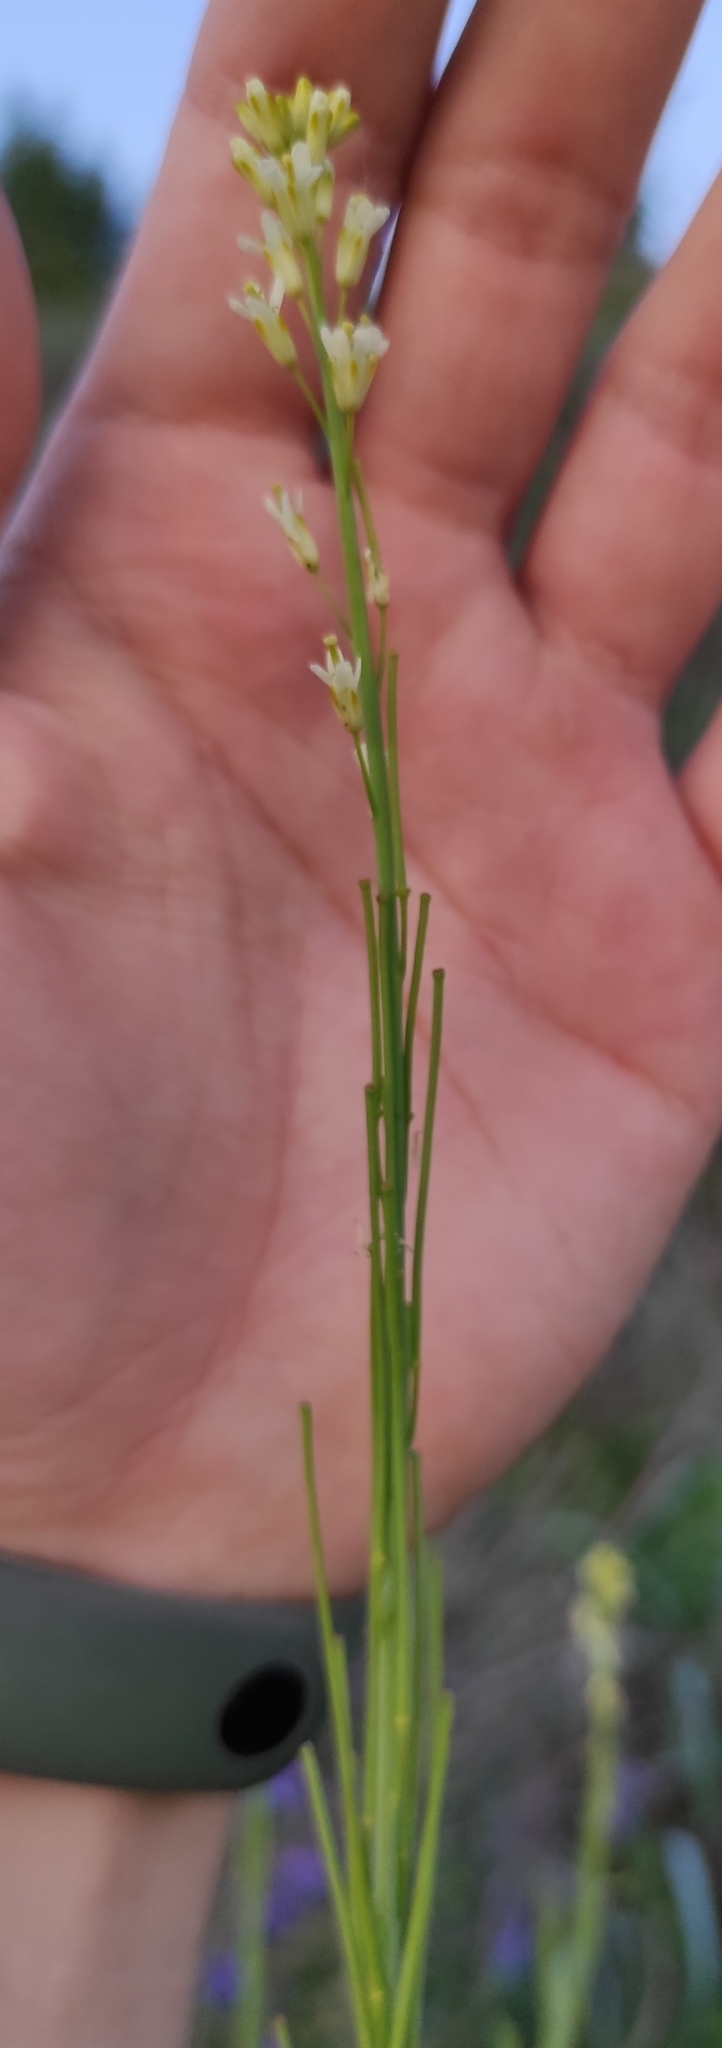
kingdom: Plantae
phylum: Tracheophyta
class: Magnoliopsida
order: Brassicales
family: Brassicaceae
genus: Turritis
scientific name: Turritis glabra
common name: Tower rockcress
